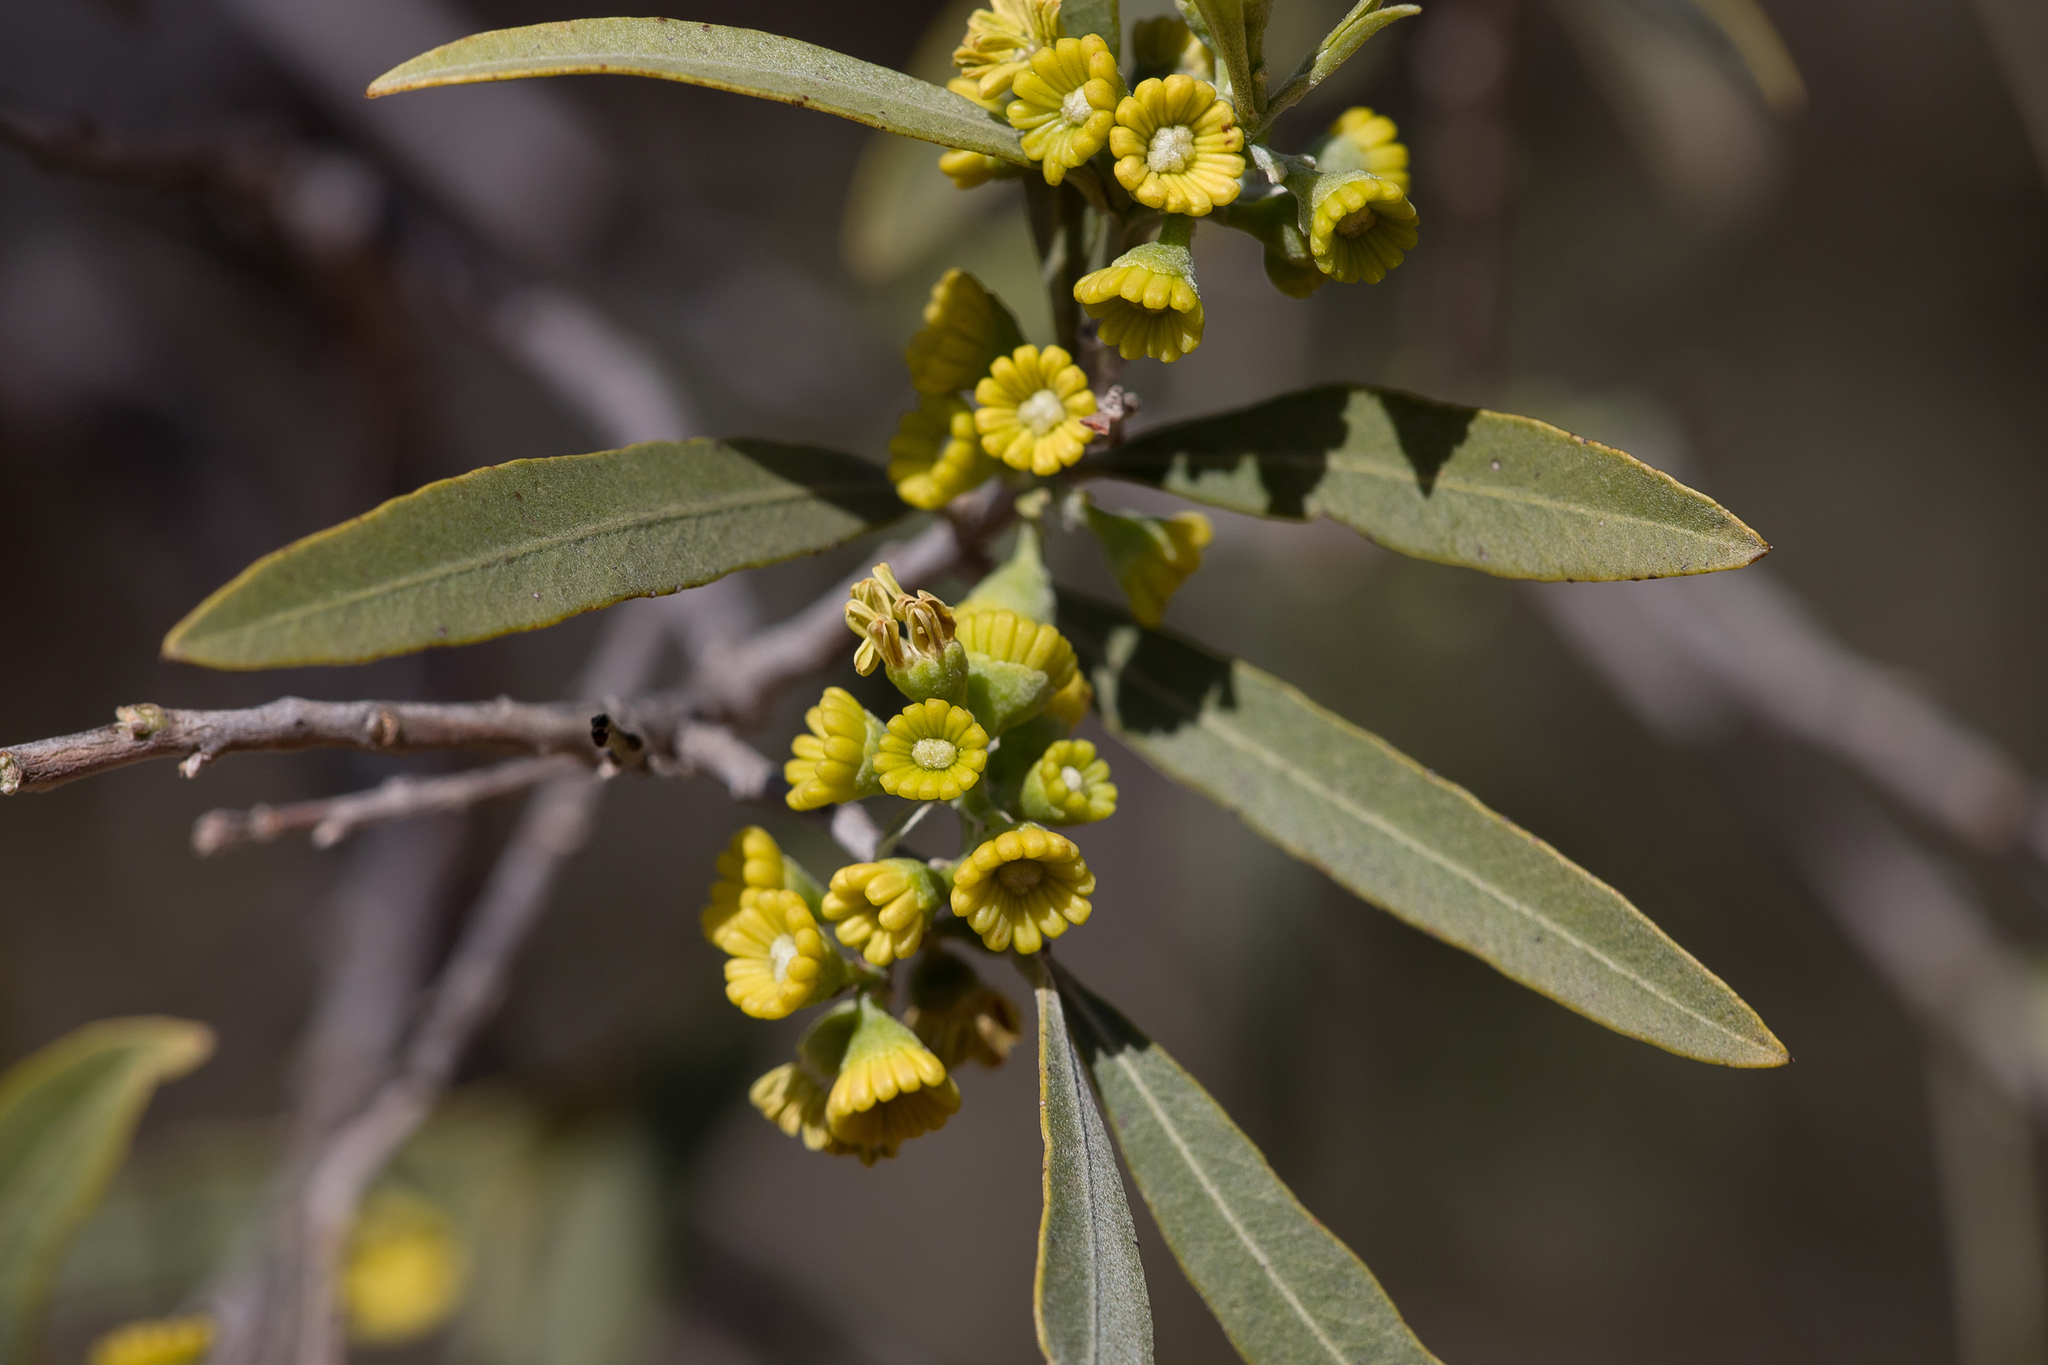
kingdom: Plantae
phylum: Tracheophyta
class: Magnoliopsida
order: Sapindales
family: Sapindaceae
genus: Alectryon
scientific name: Alectryon oleifolius
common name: Australian rosewood
